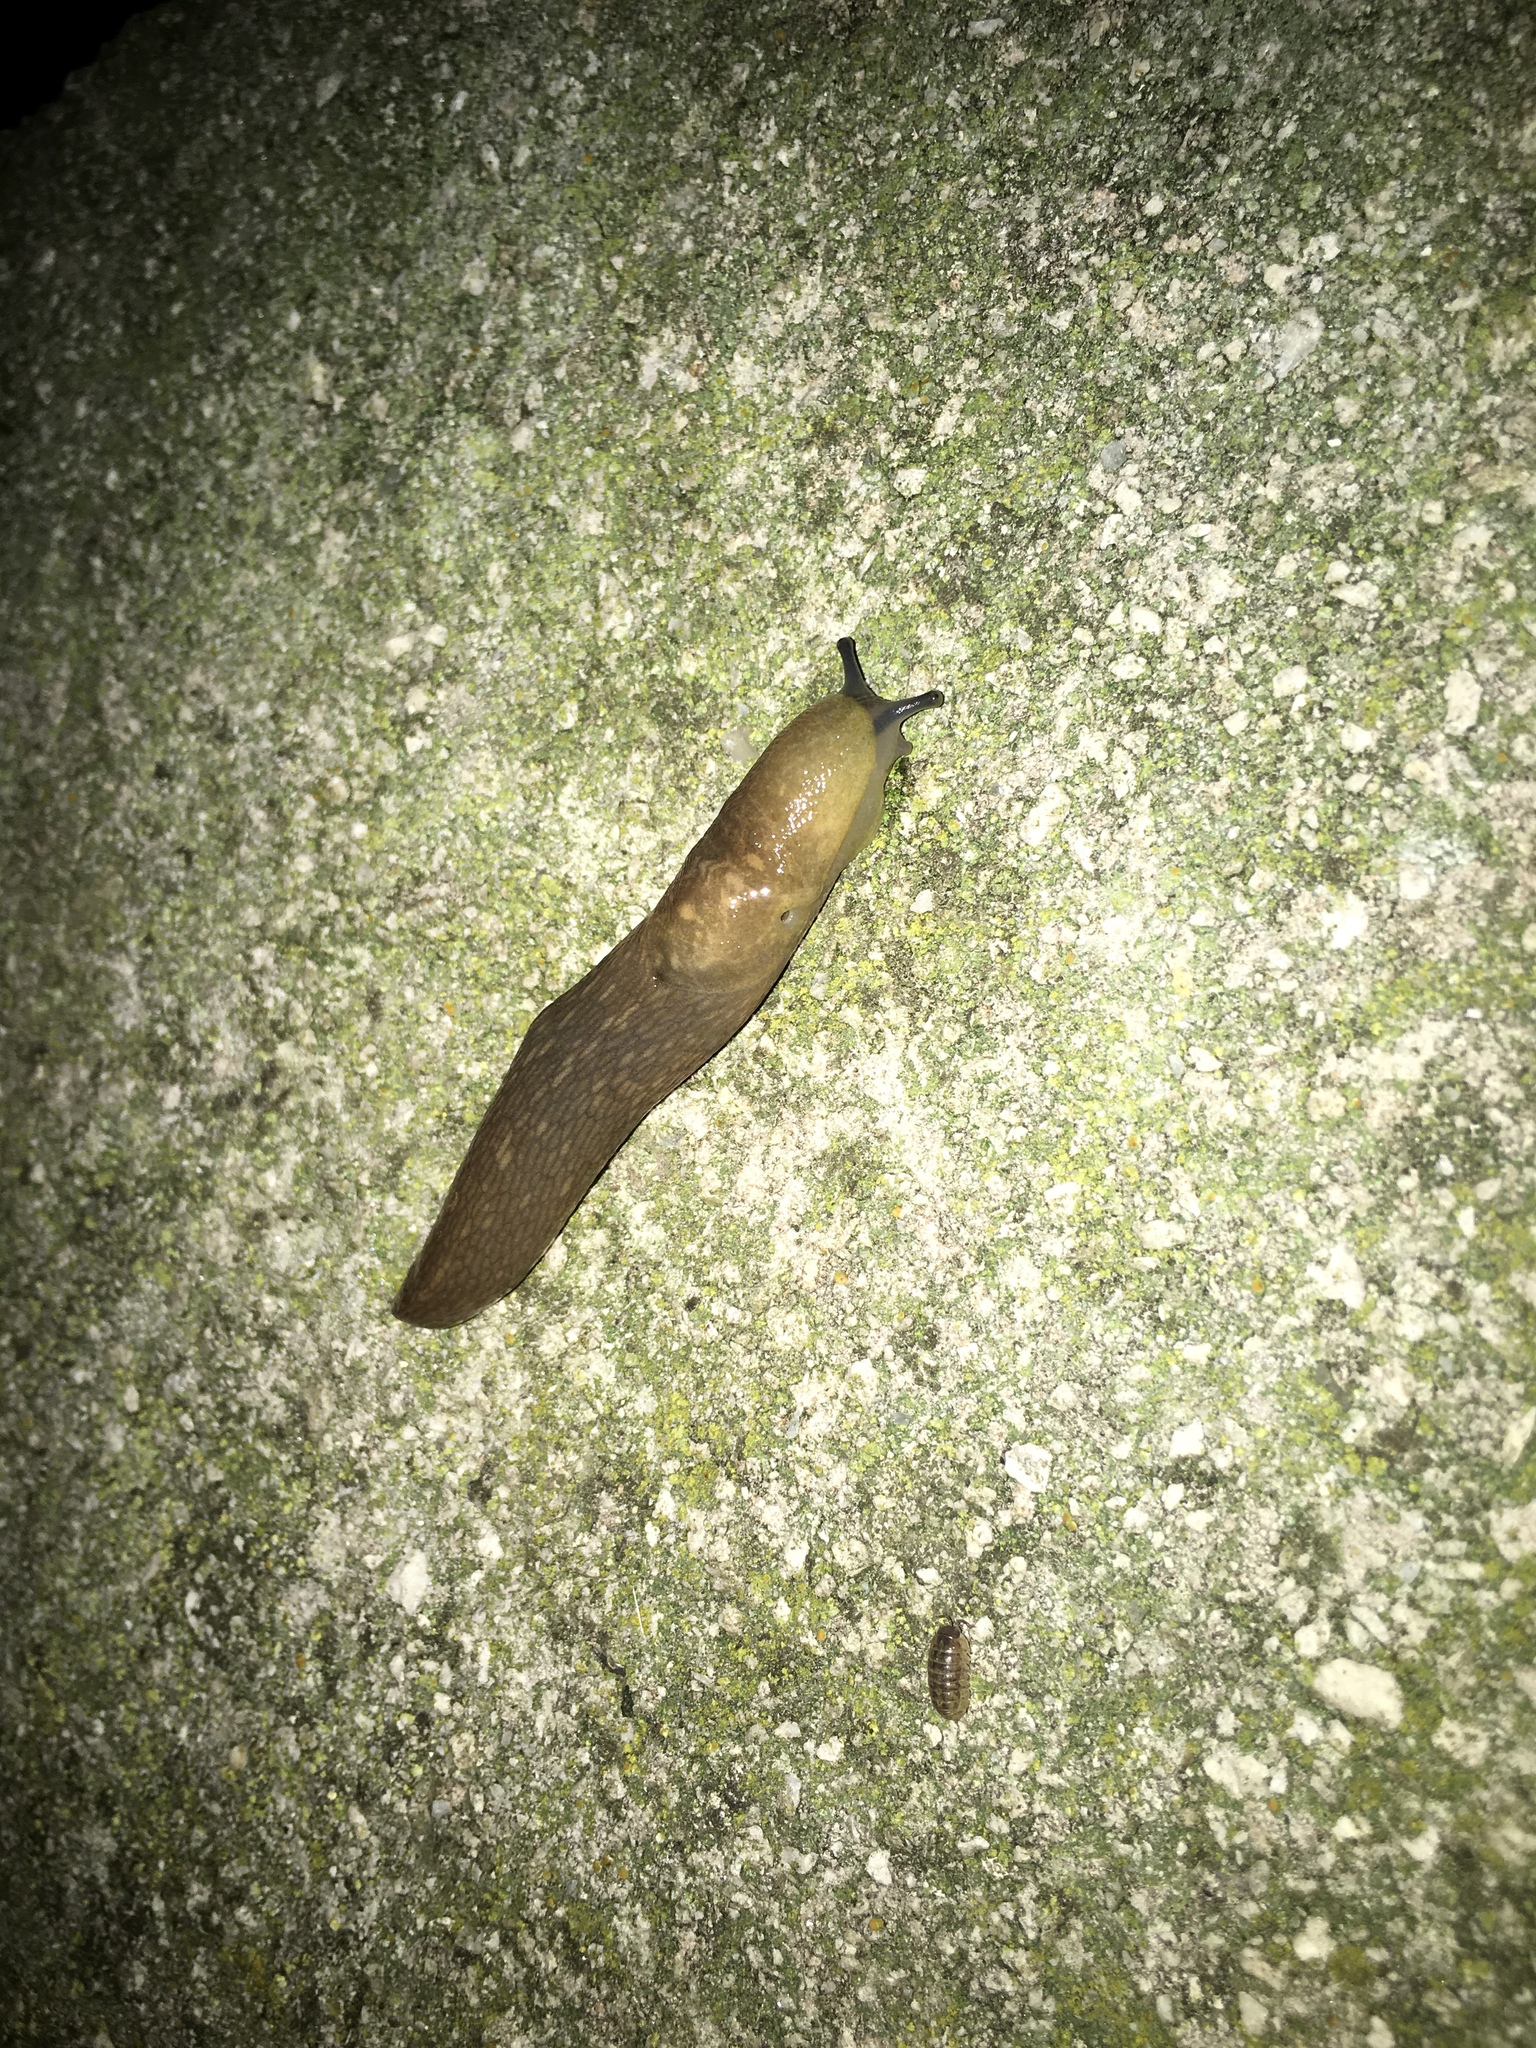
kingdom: Animalia
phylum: Mollusca
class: Gastropoda
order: Stylommatophora
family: Limacidae
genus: Limacus
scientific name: Limacus flavus
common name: Yellow gardenslug
